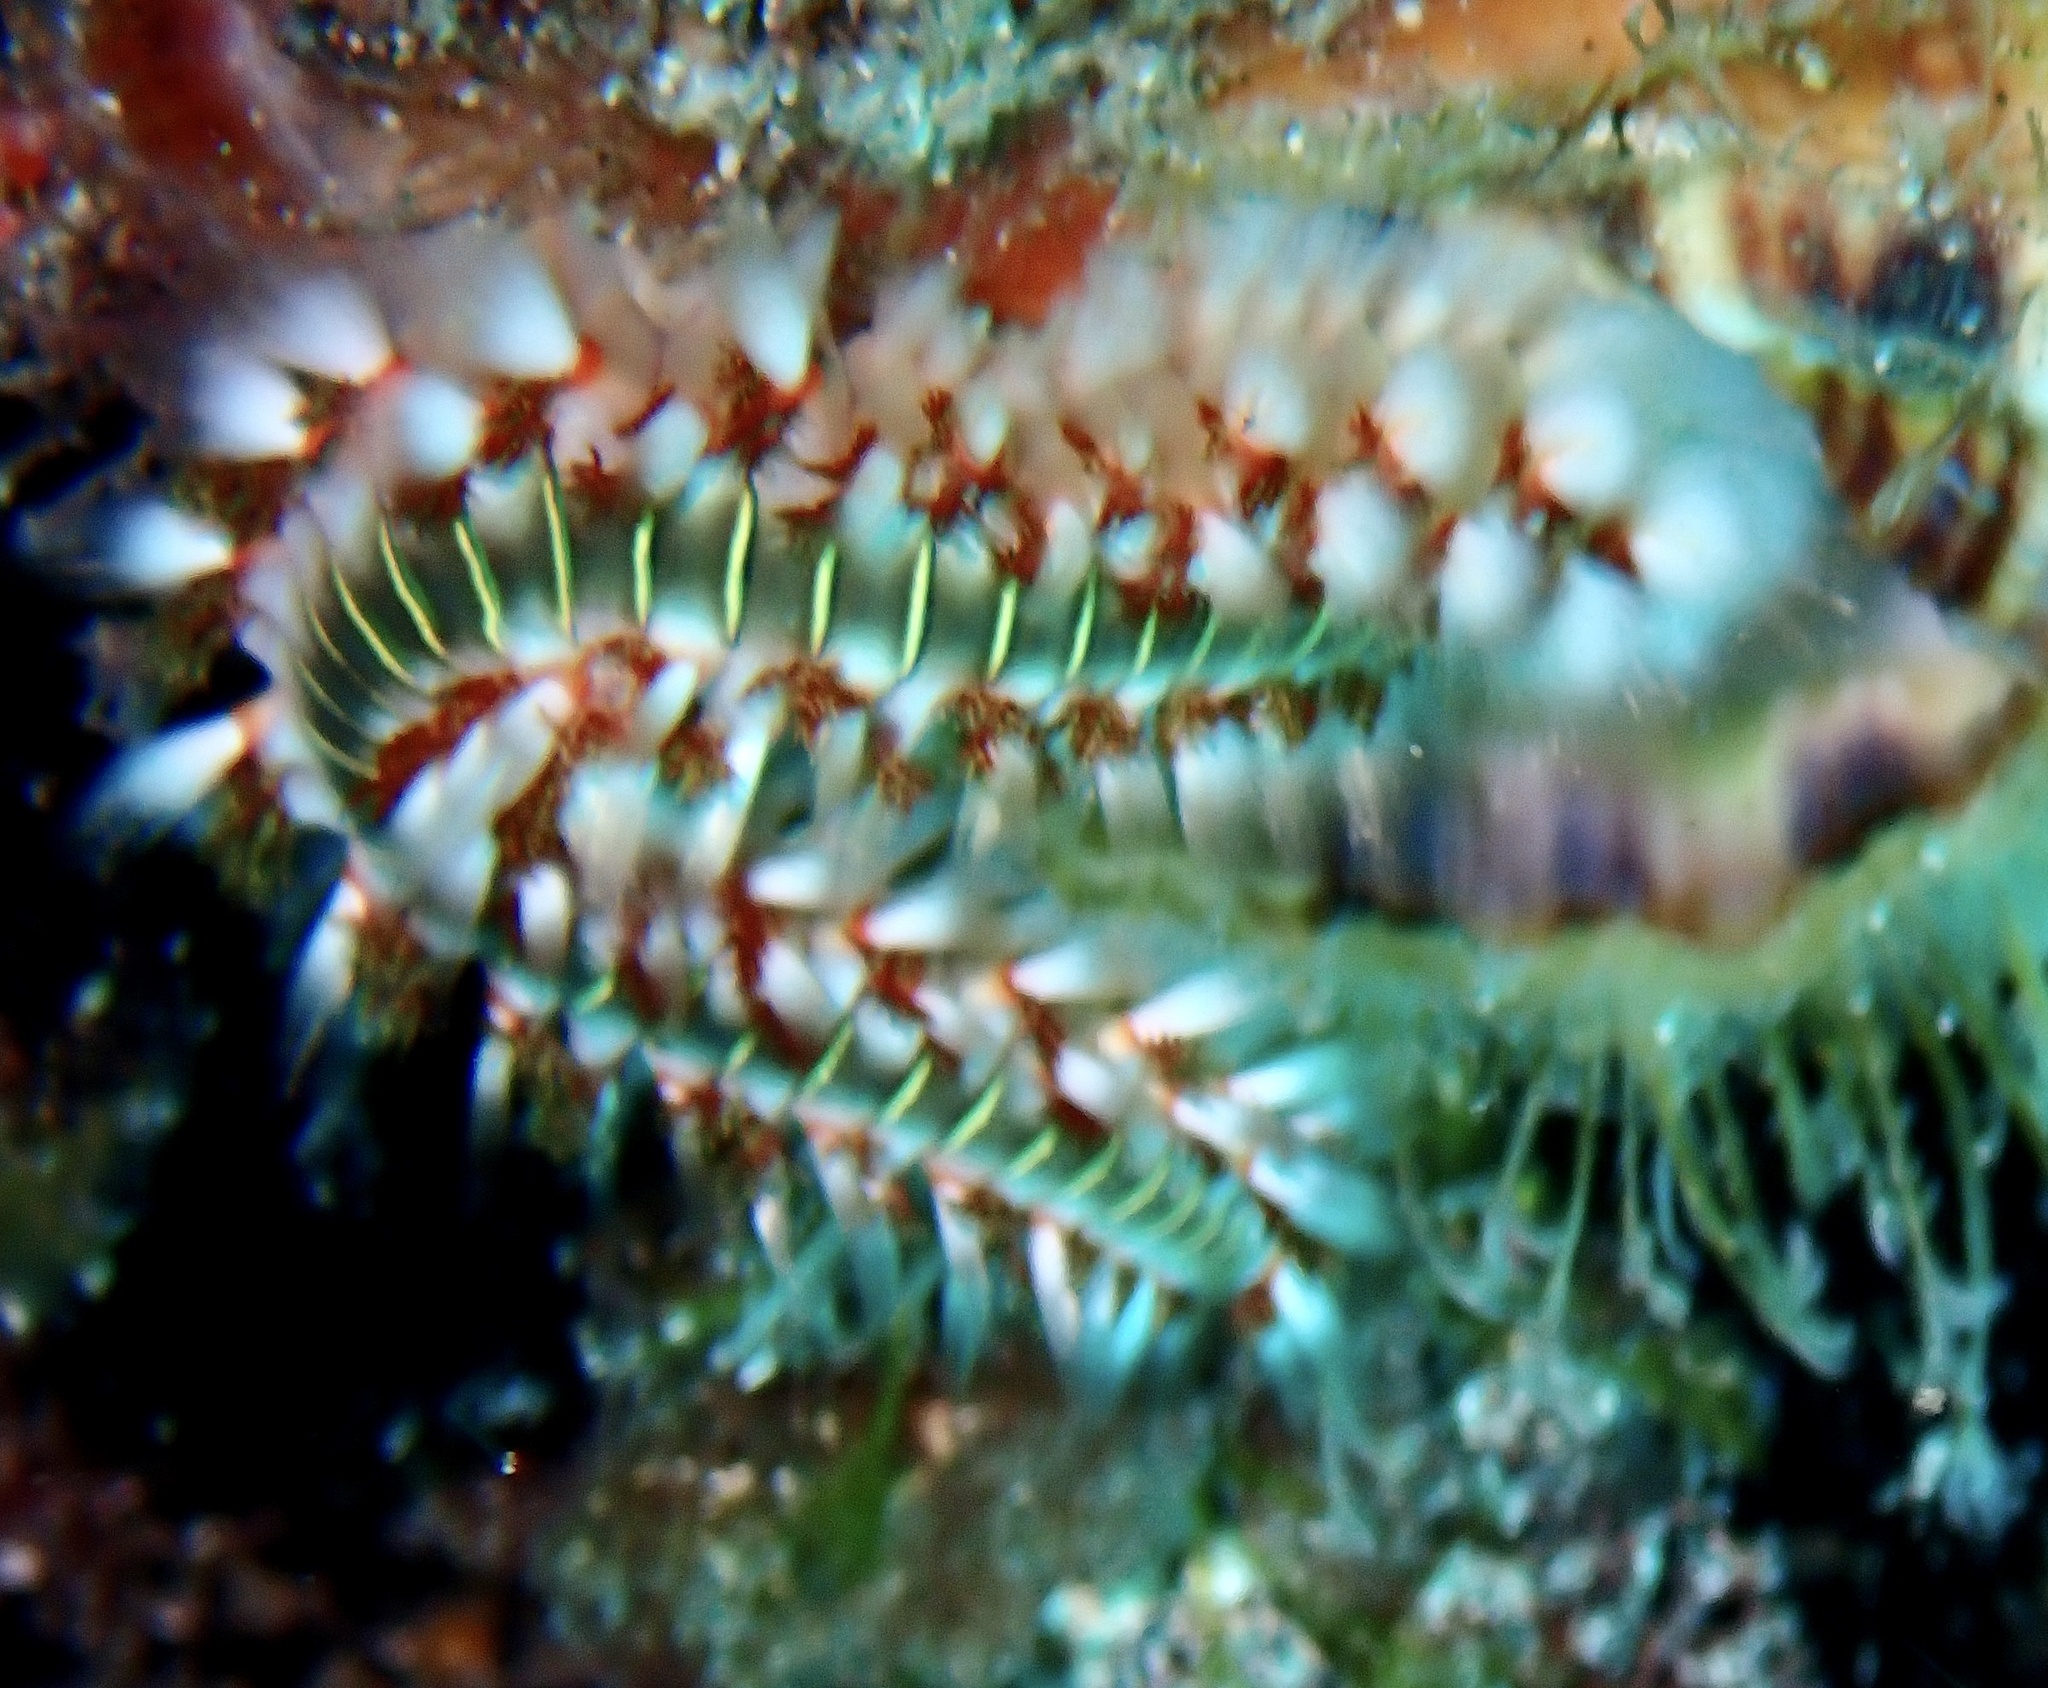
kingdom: Animalia
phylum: Annelida
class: Polychaeta
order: Amphinomida
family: Amphinomidae
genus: Hermodice
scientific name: Hermodice carunculata
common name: Bearded fireworm
